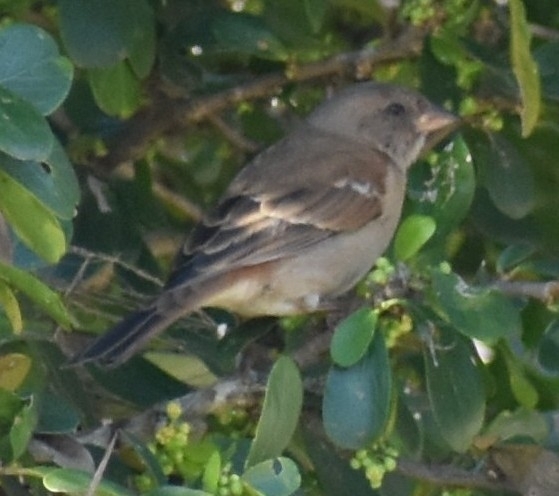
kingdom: Animalia
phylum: Chordata
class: Aves
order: Passeriformes
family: Passeridae
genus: Passer
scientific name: Passer diffusus
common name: Southern grey-headed sparrow
